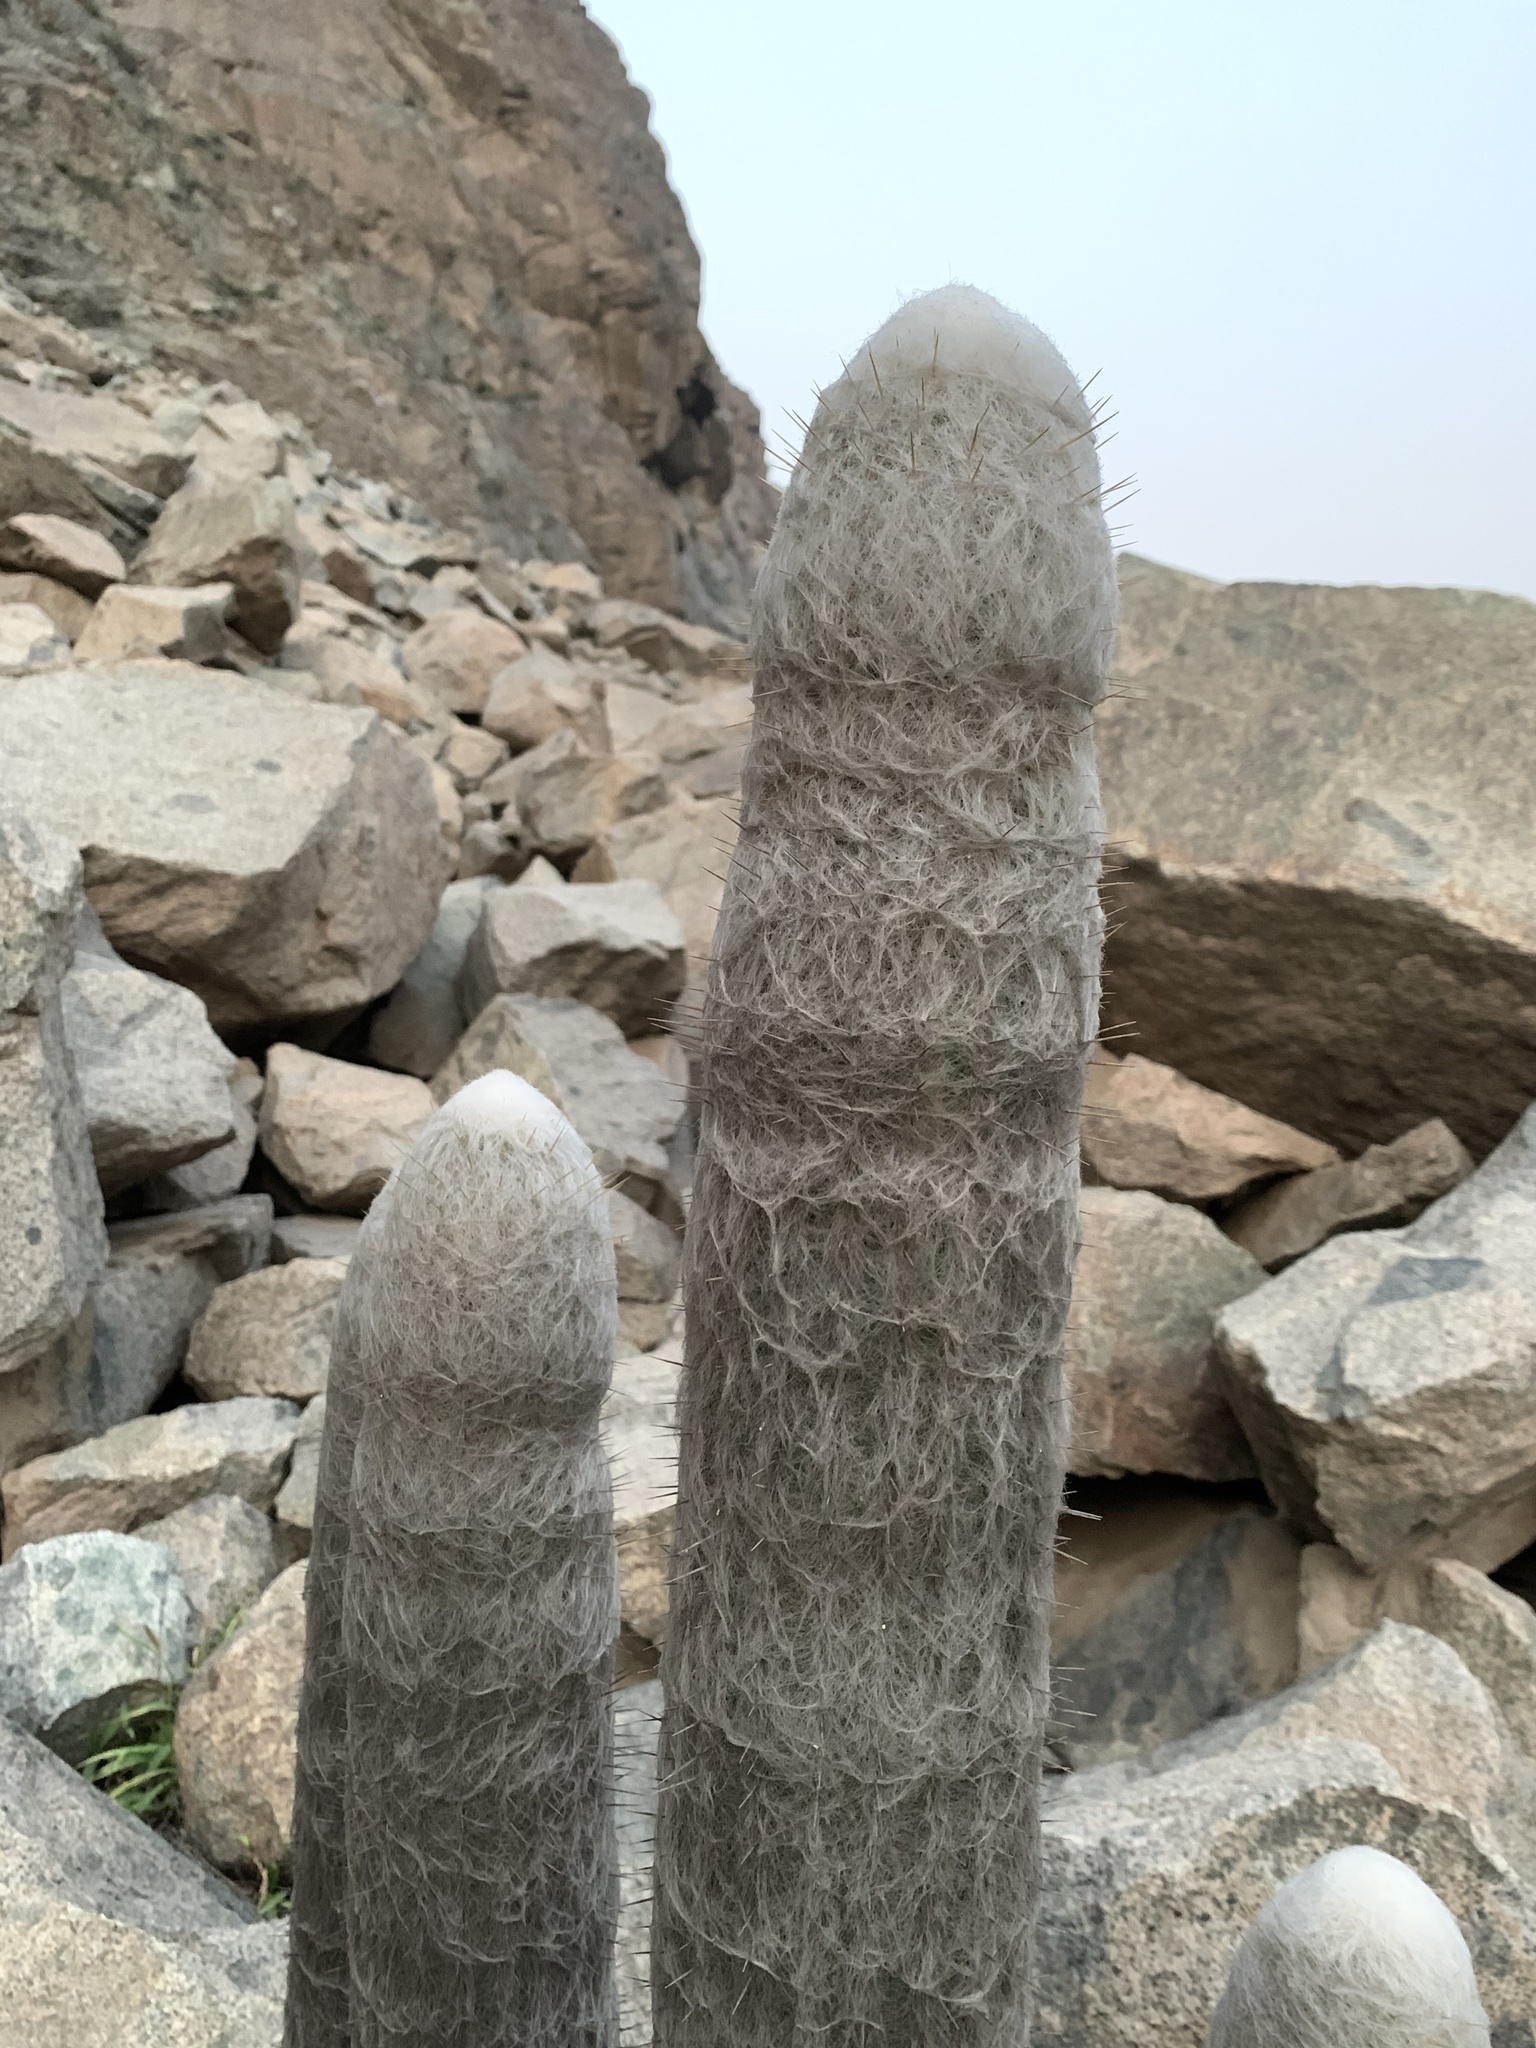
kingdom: Plantae
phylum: Tracheophyta
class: Magnoliopsida
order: Caryophyllales
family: Cactaceae
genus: Espostoa
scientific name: Espostoa melanostele
